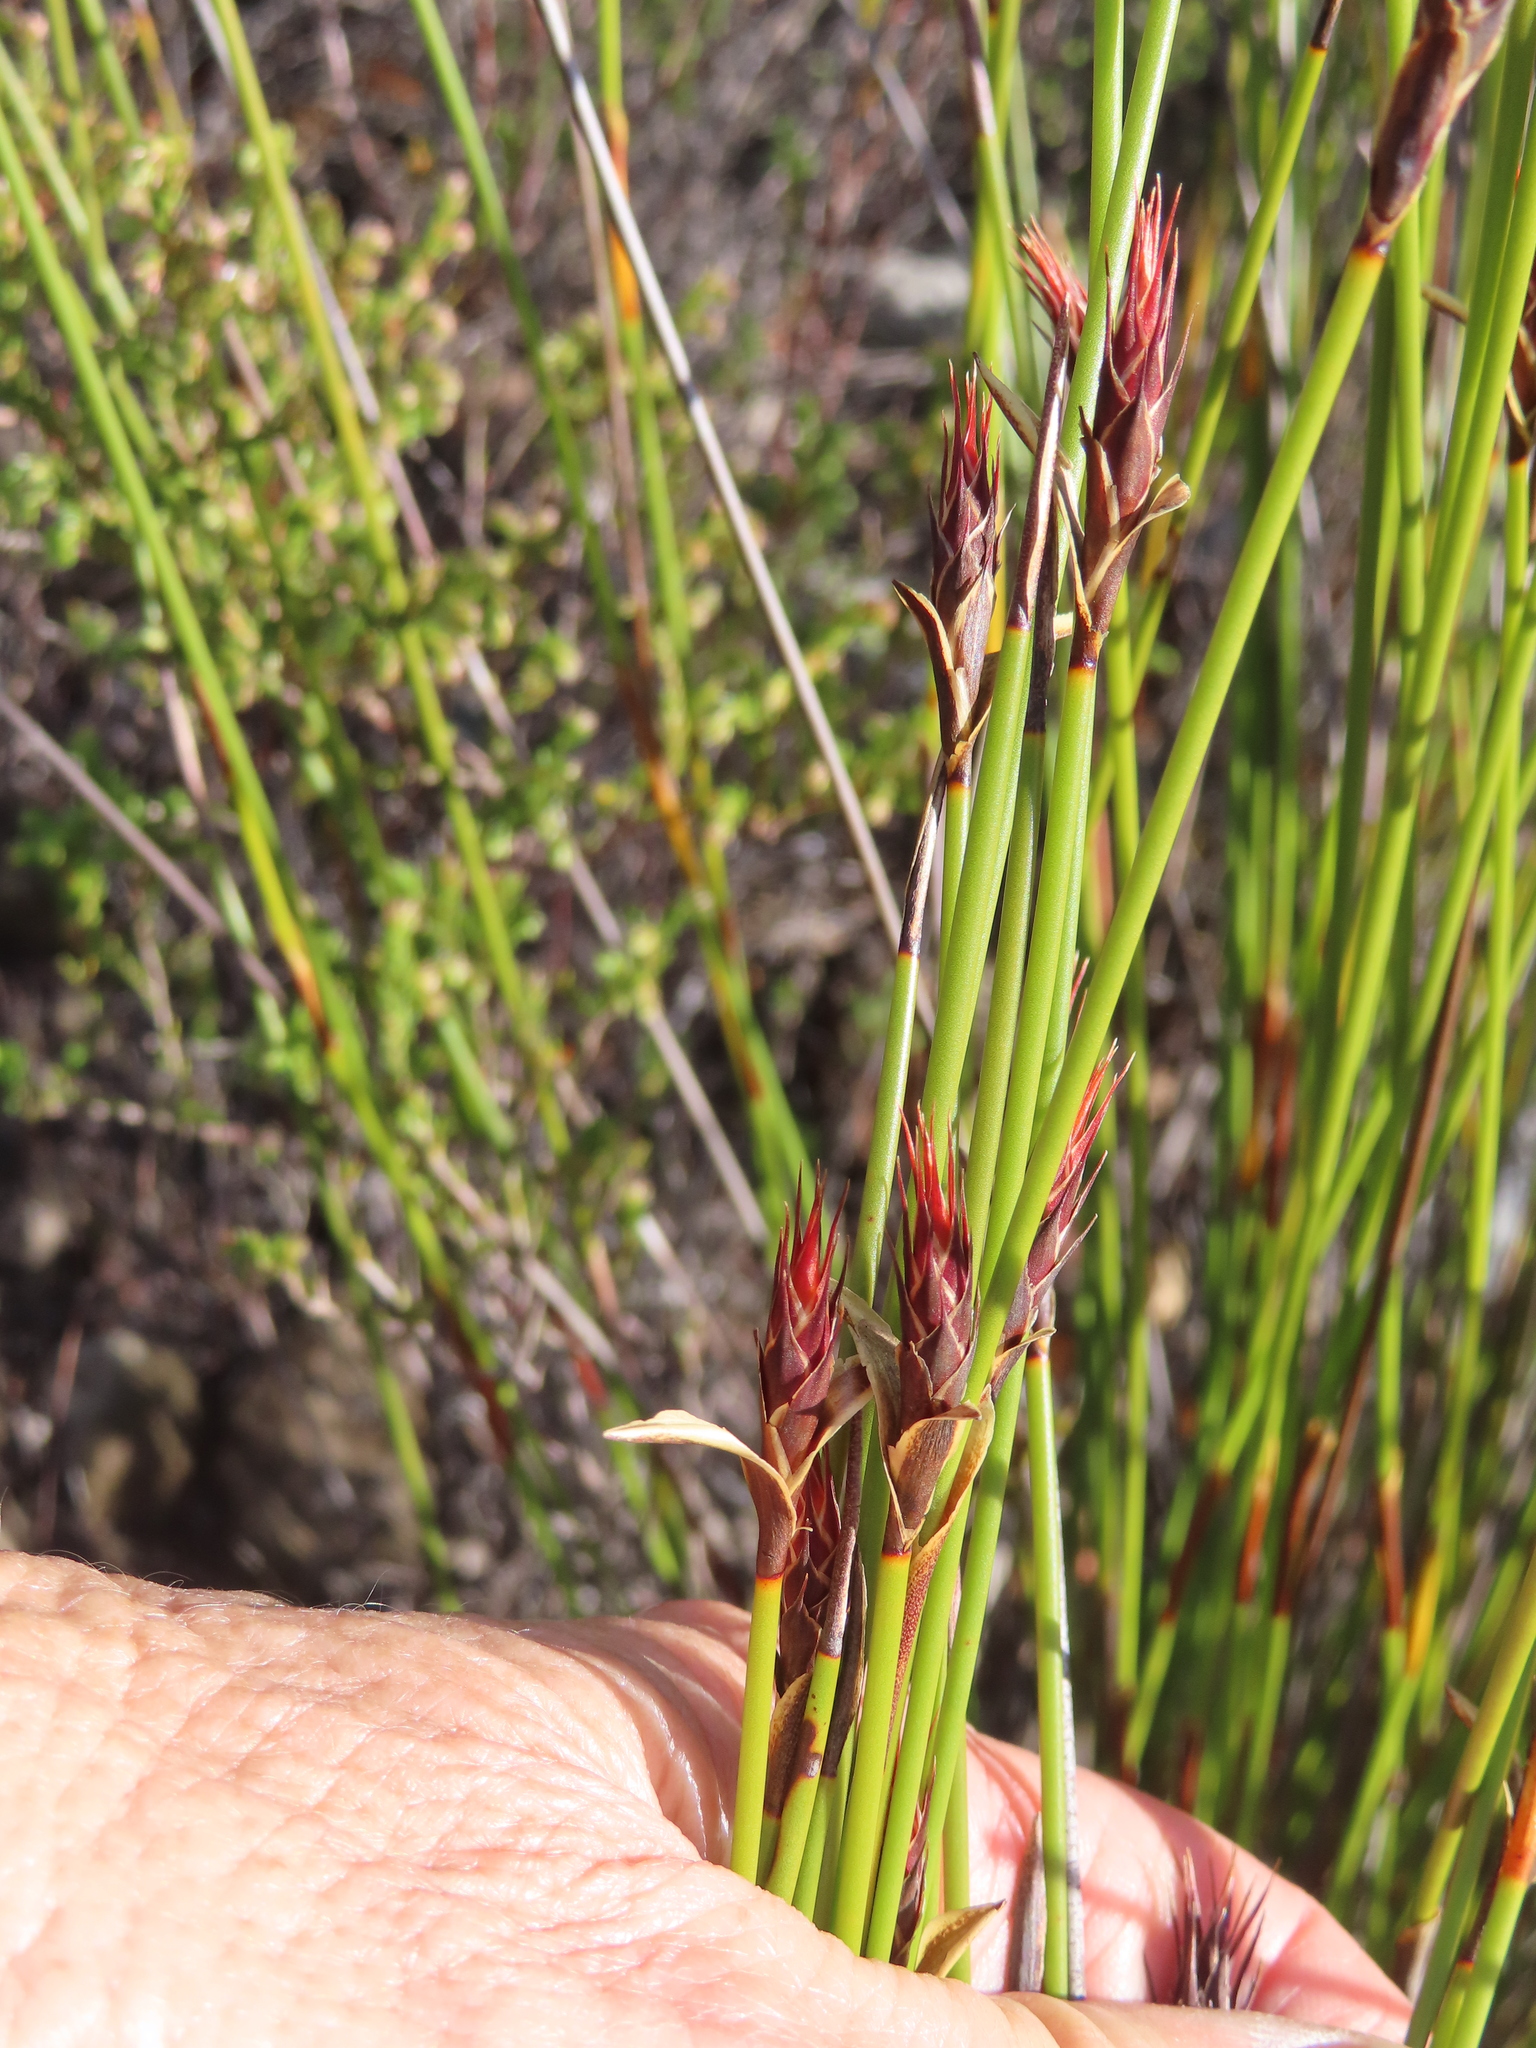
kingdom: Plantae
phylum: Tracheophyta
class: Liliopsida
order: Poales
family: Restionaceae
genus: Hypodiscus
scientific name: Hypodiscus aristatus
